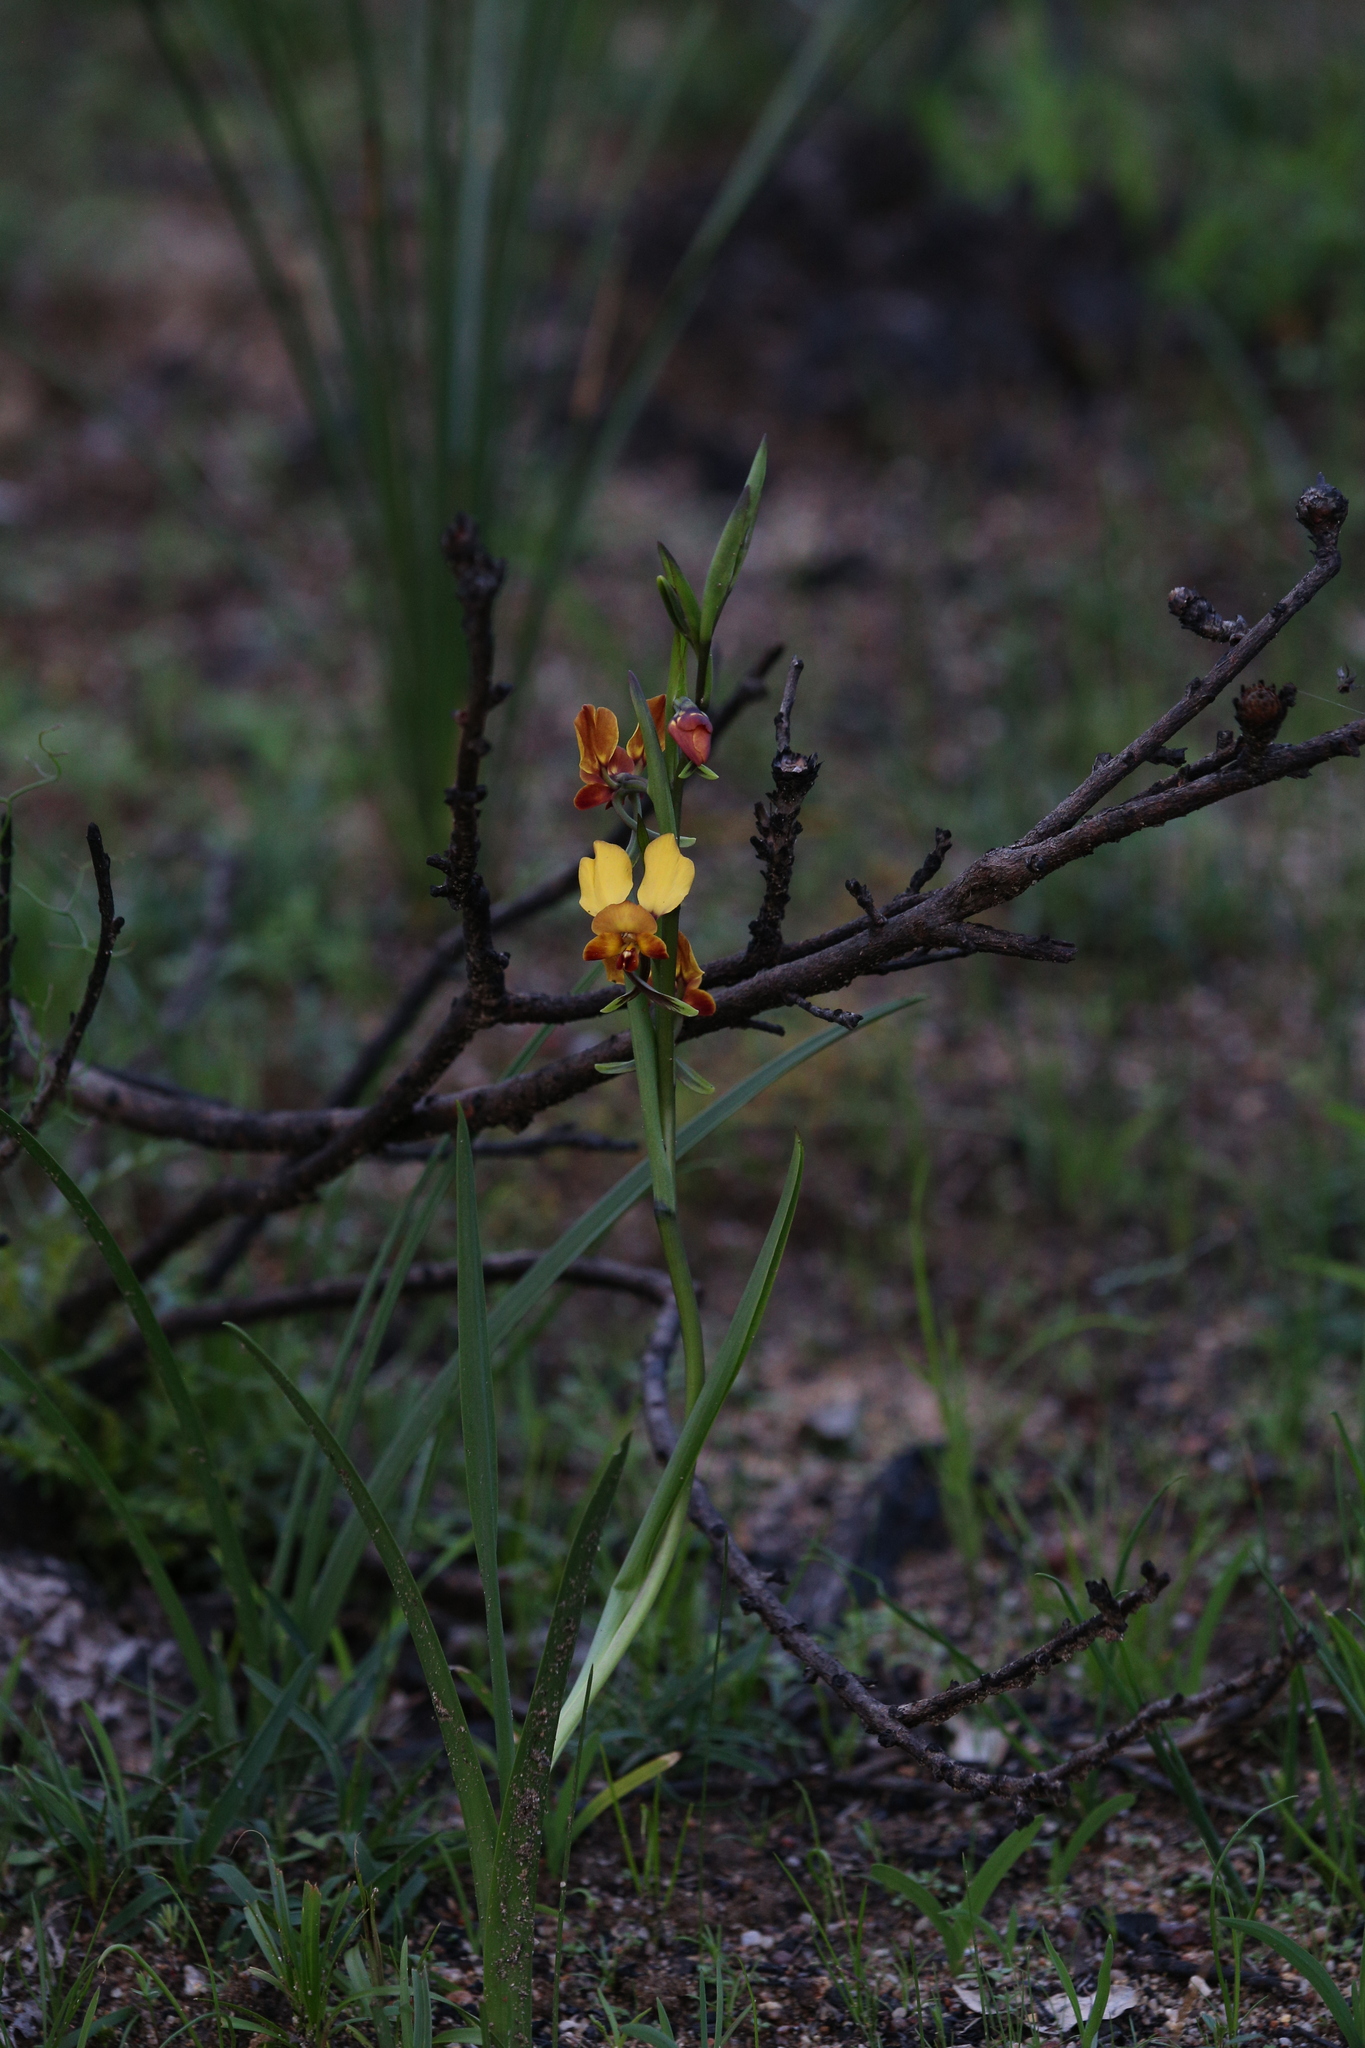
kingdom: Plantae
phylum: Tracheophyta
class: Liliopsida
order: Asparagales
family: Orchidaceae
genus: Diuris
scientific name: Diuris brumalis
